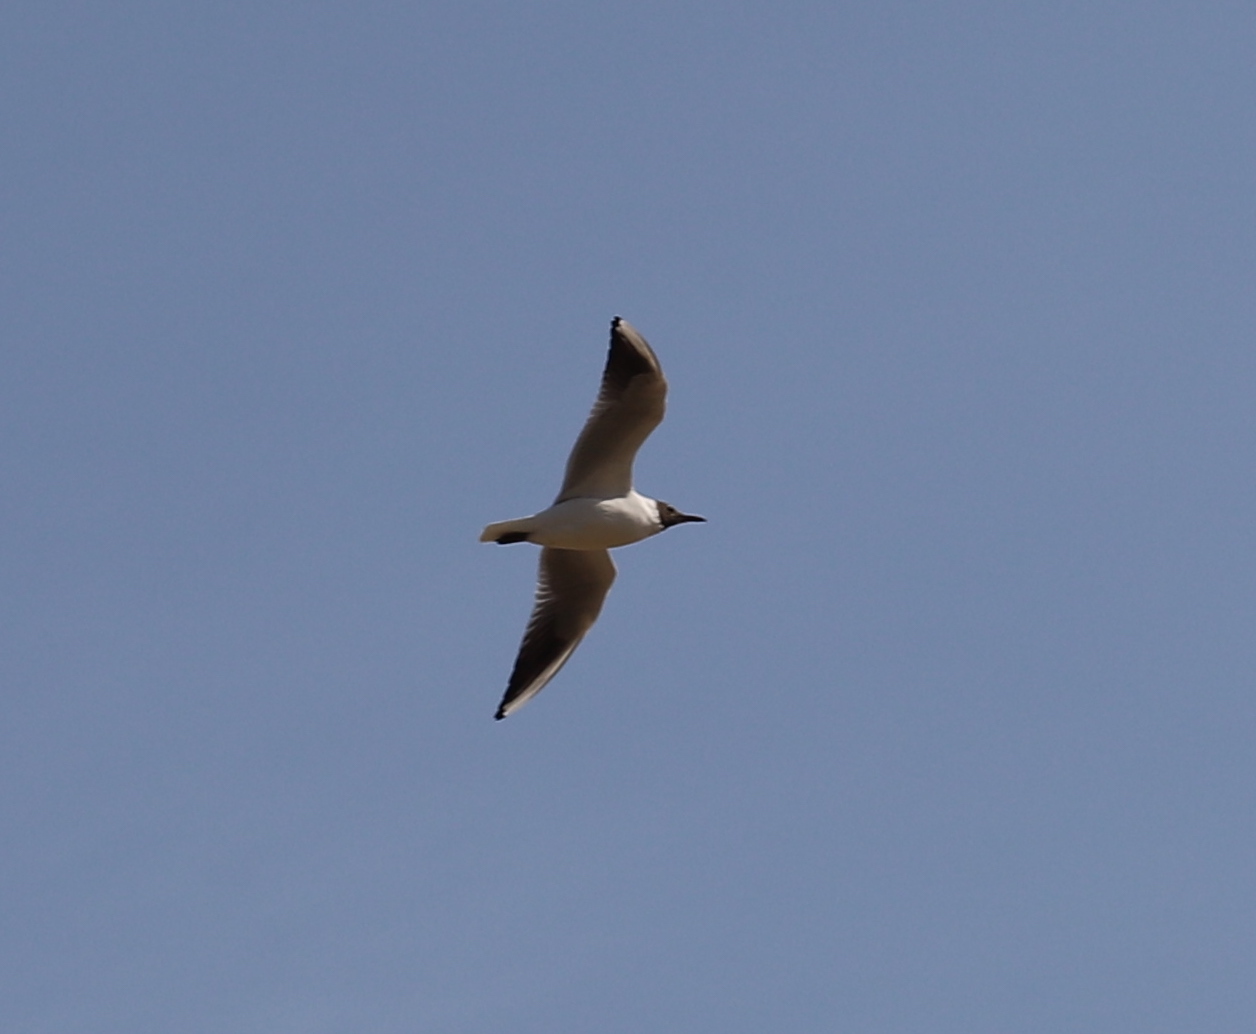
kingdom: Animalia
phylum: Chordata
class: Aves
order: Charadriiformes
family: Laridae
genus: Chroicocephalus
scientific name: Chroicocephalus ridibundus
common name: Black-headed gull
